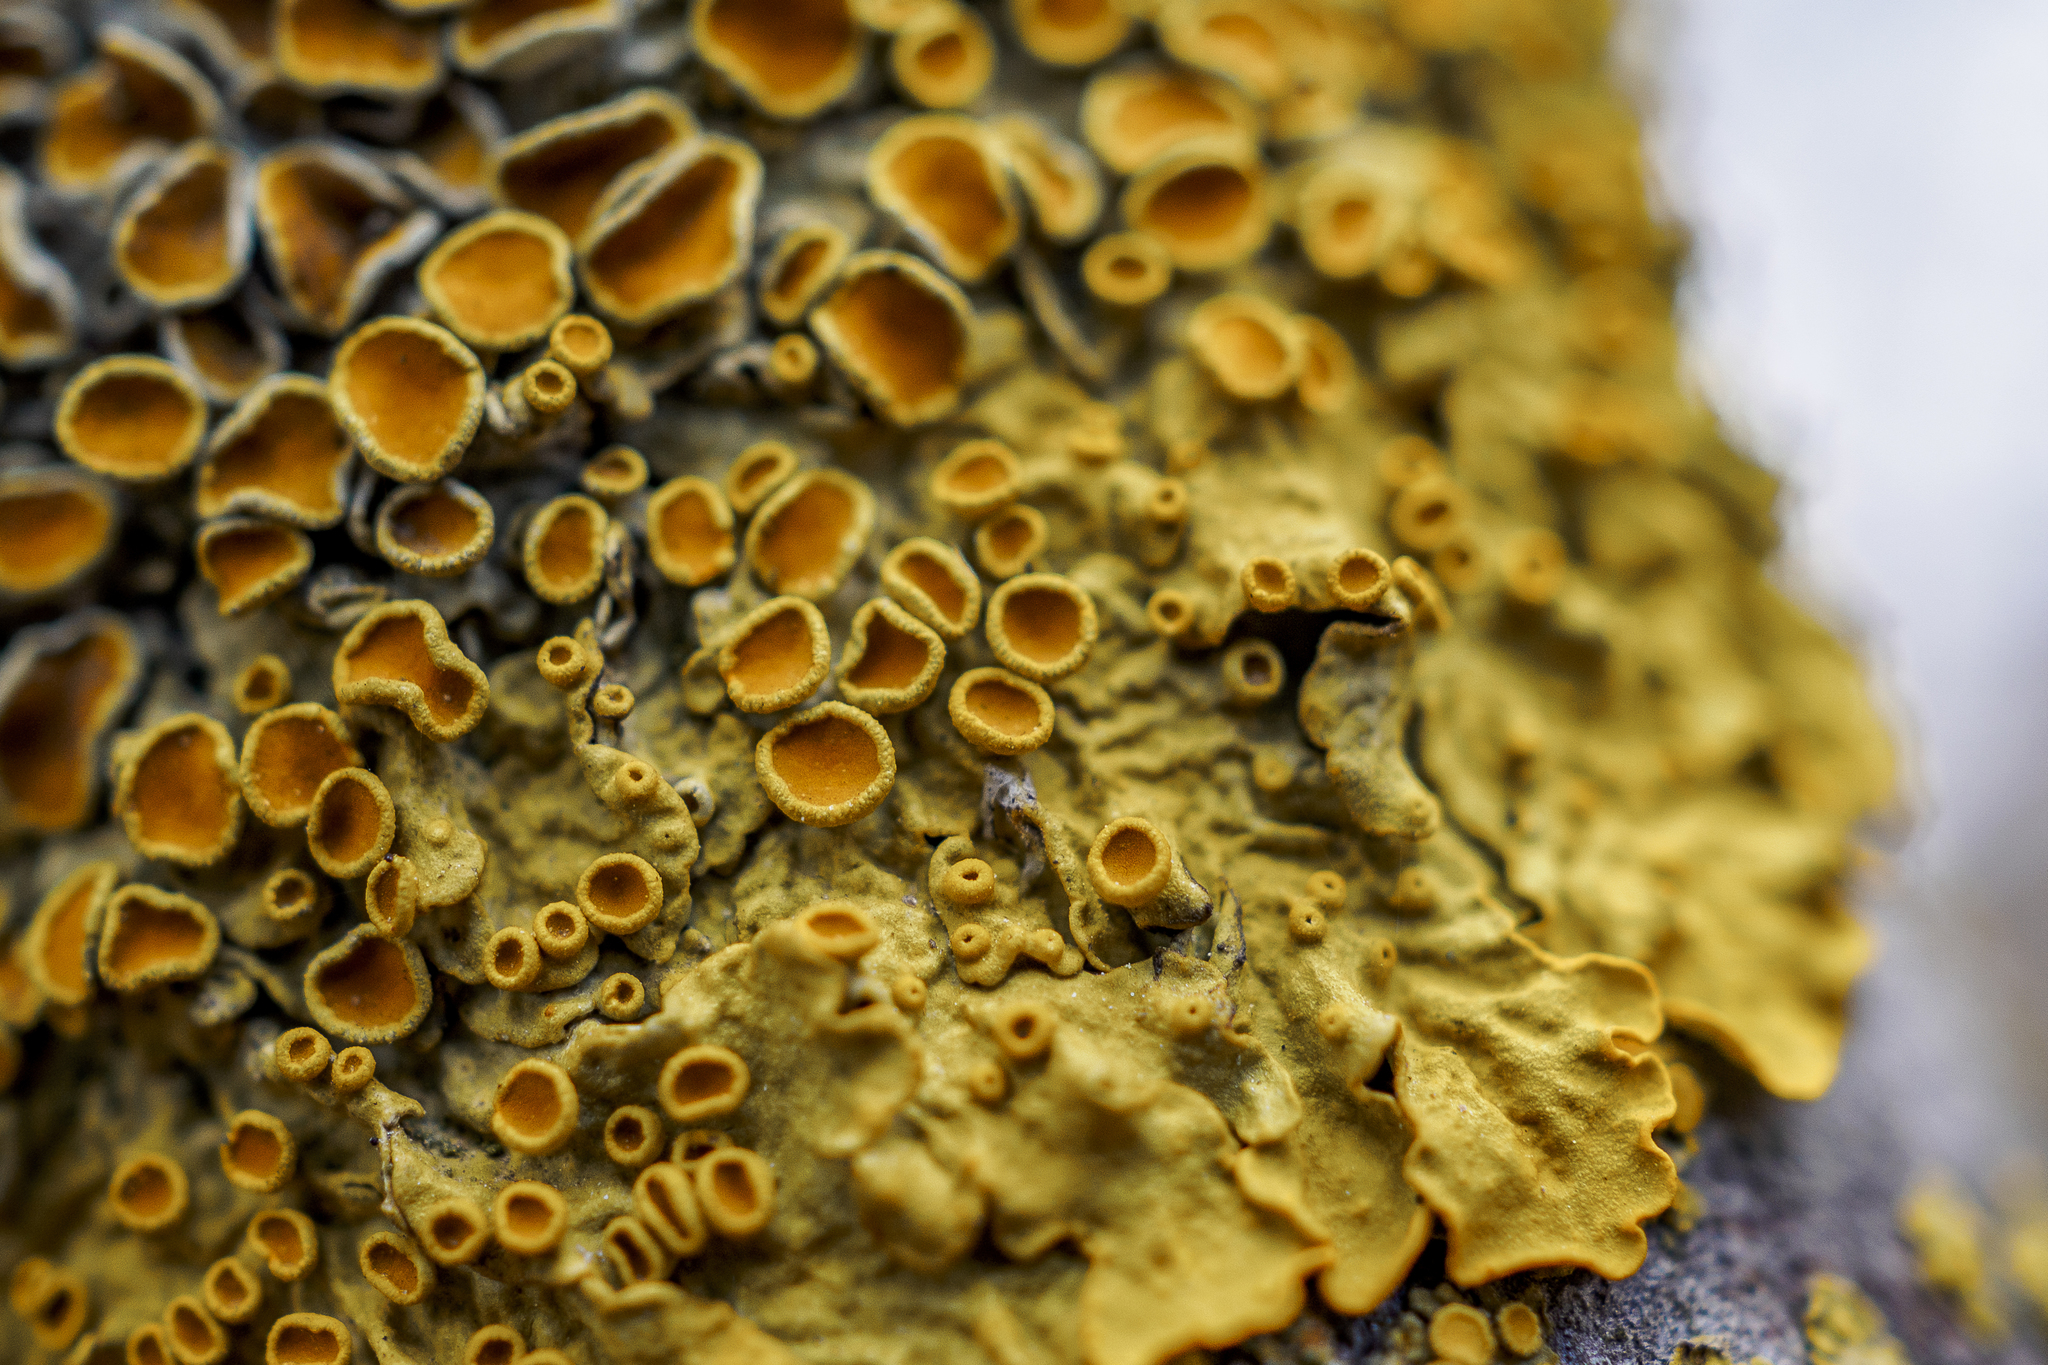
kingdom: Fungi
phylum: Ascomycota
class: Lecanoromycetes
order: Teloschistales
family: Teloschistaceae
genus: Xanthoria
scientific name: Xanthoria parietina
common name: Common orange lichen
